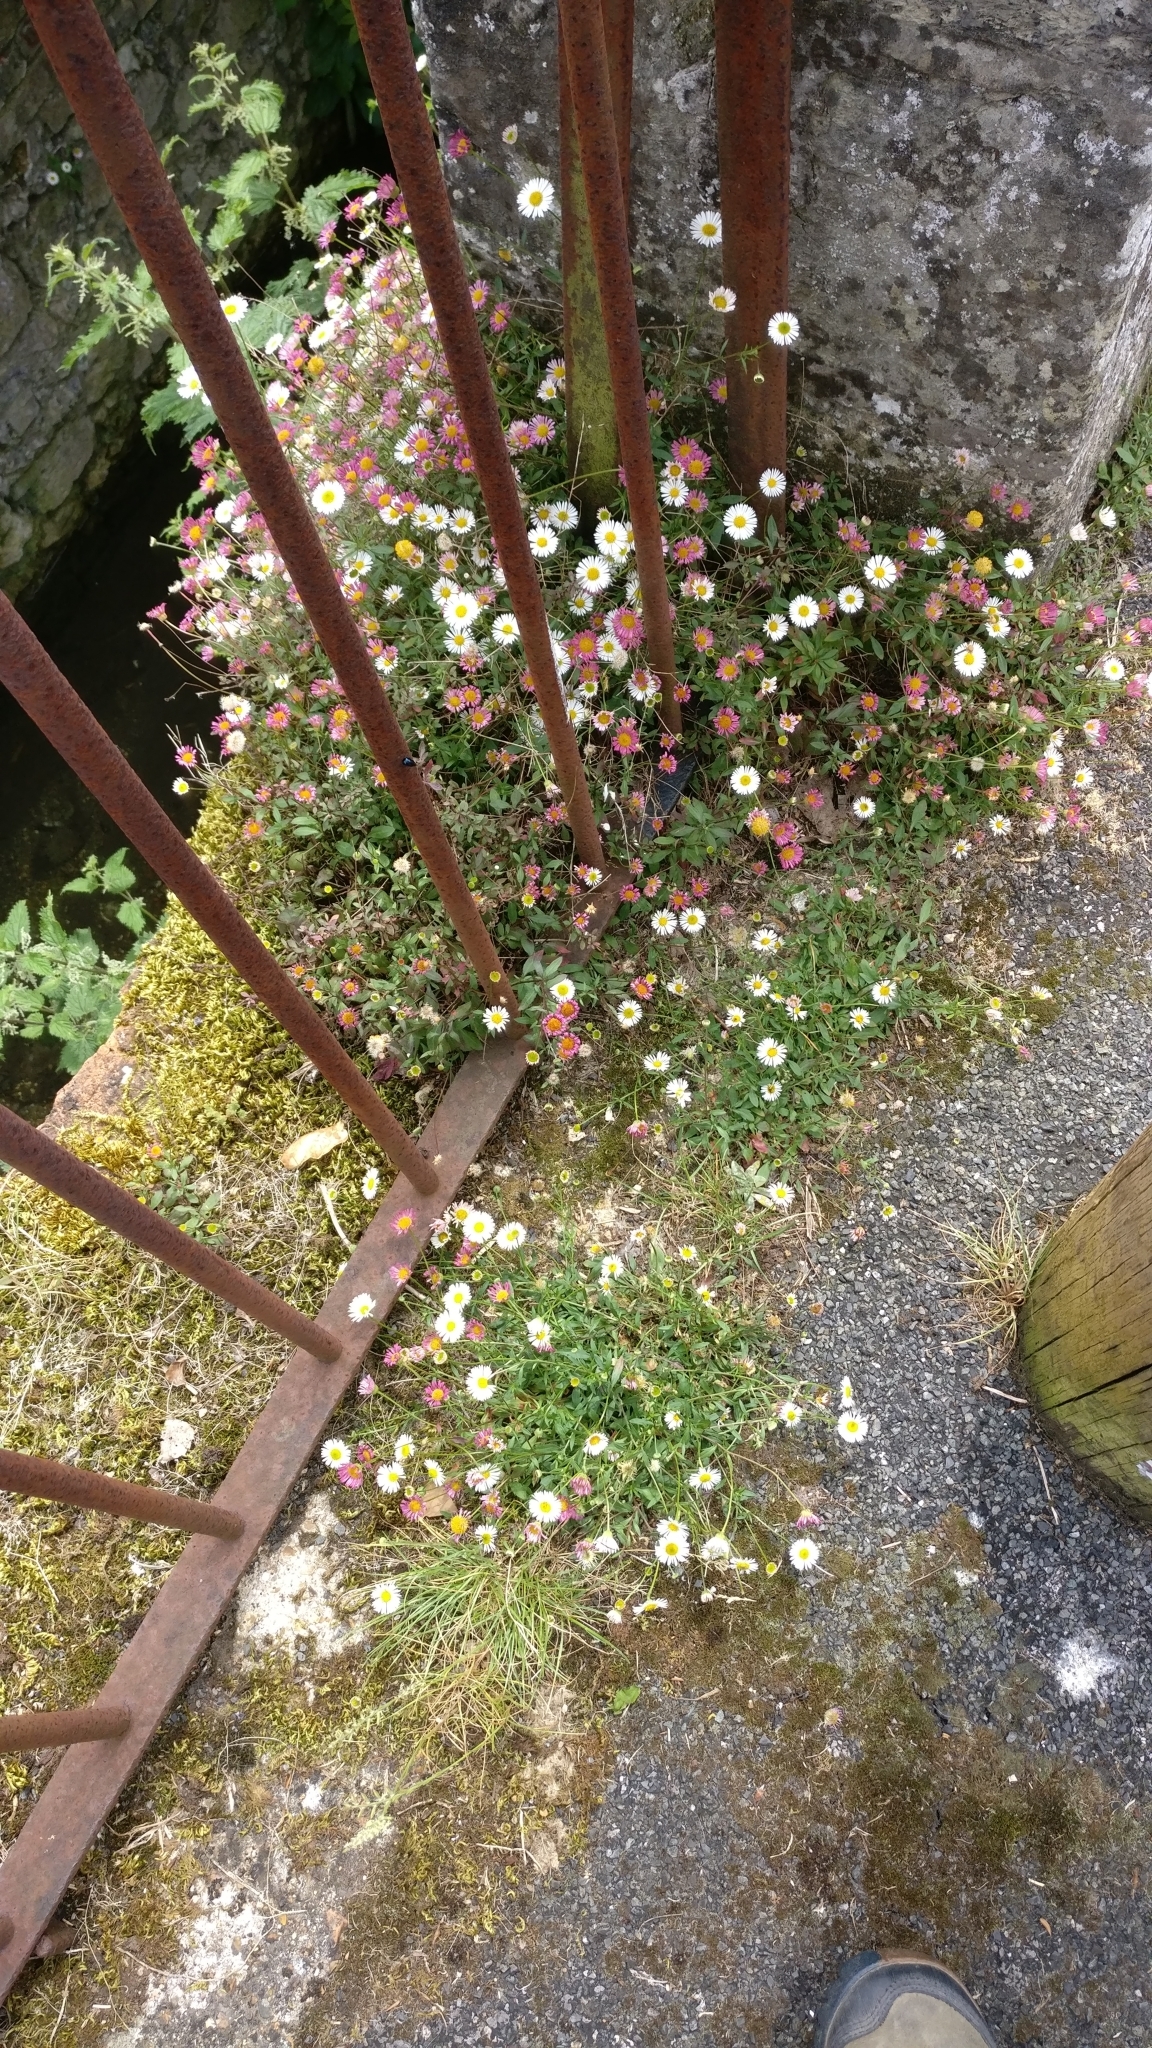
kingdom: Plantae
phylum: Tracheophyta
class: Magnoliopsida
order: Asterales
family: Asteraceae
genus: Erigeron
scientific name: Erigeron karvinskianus
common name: Mexican fleabane
